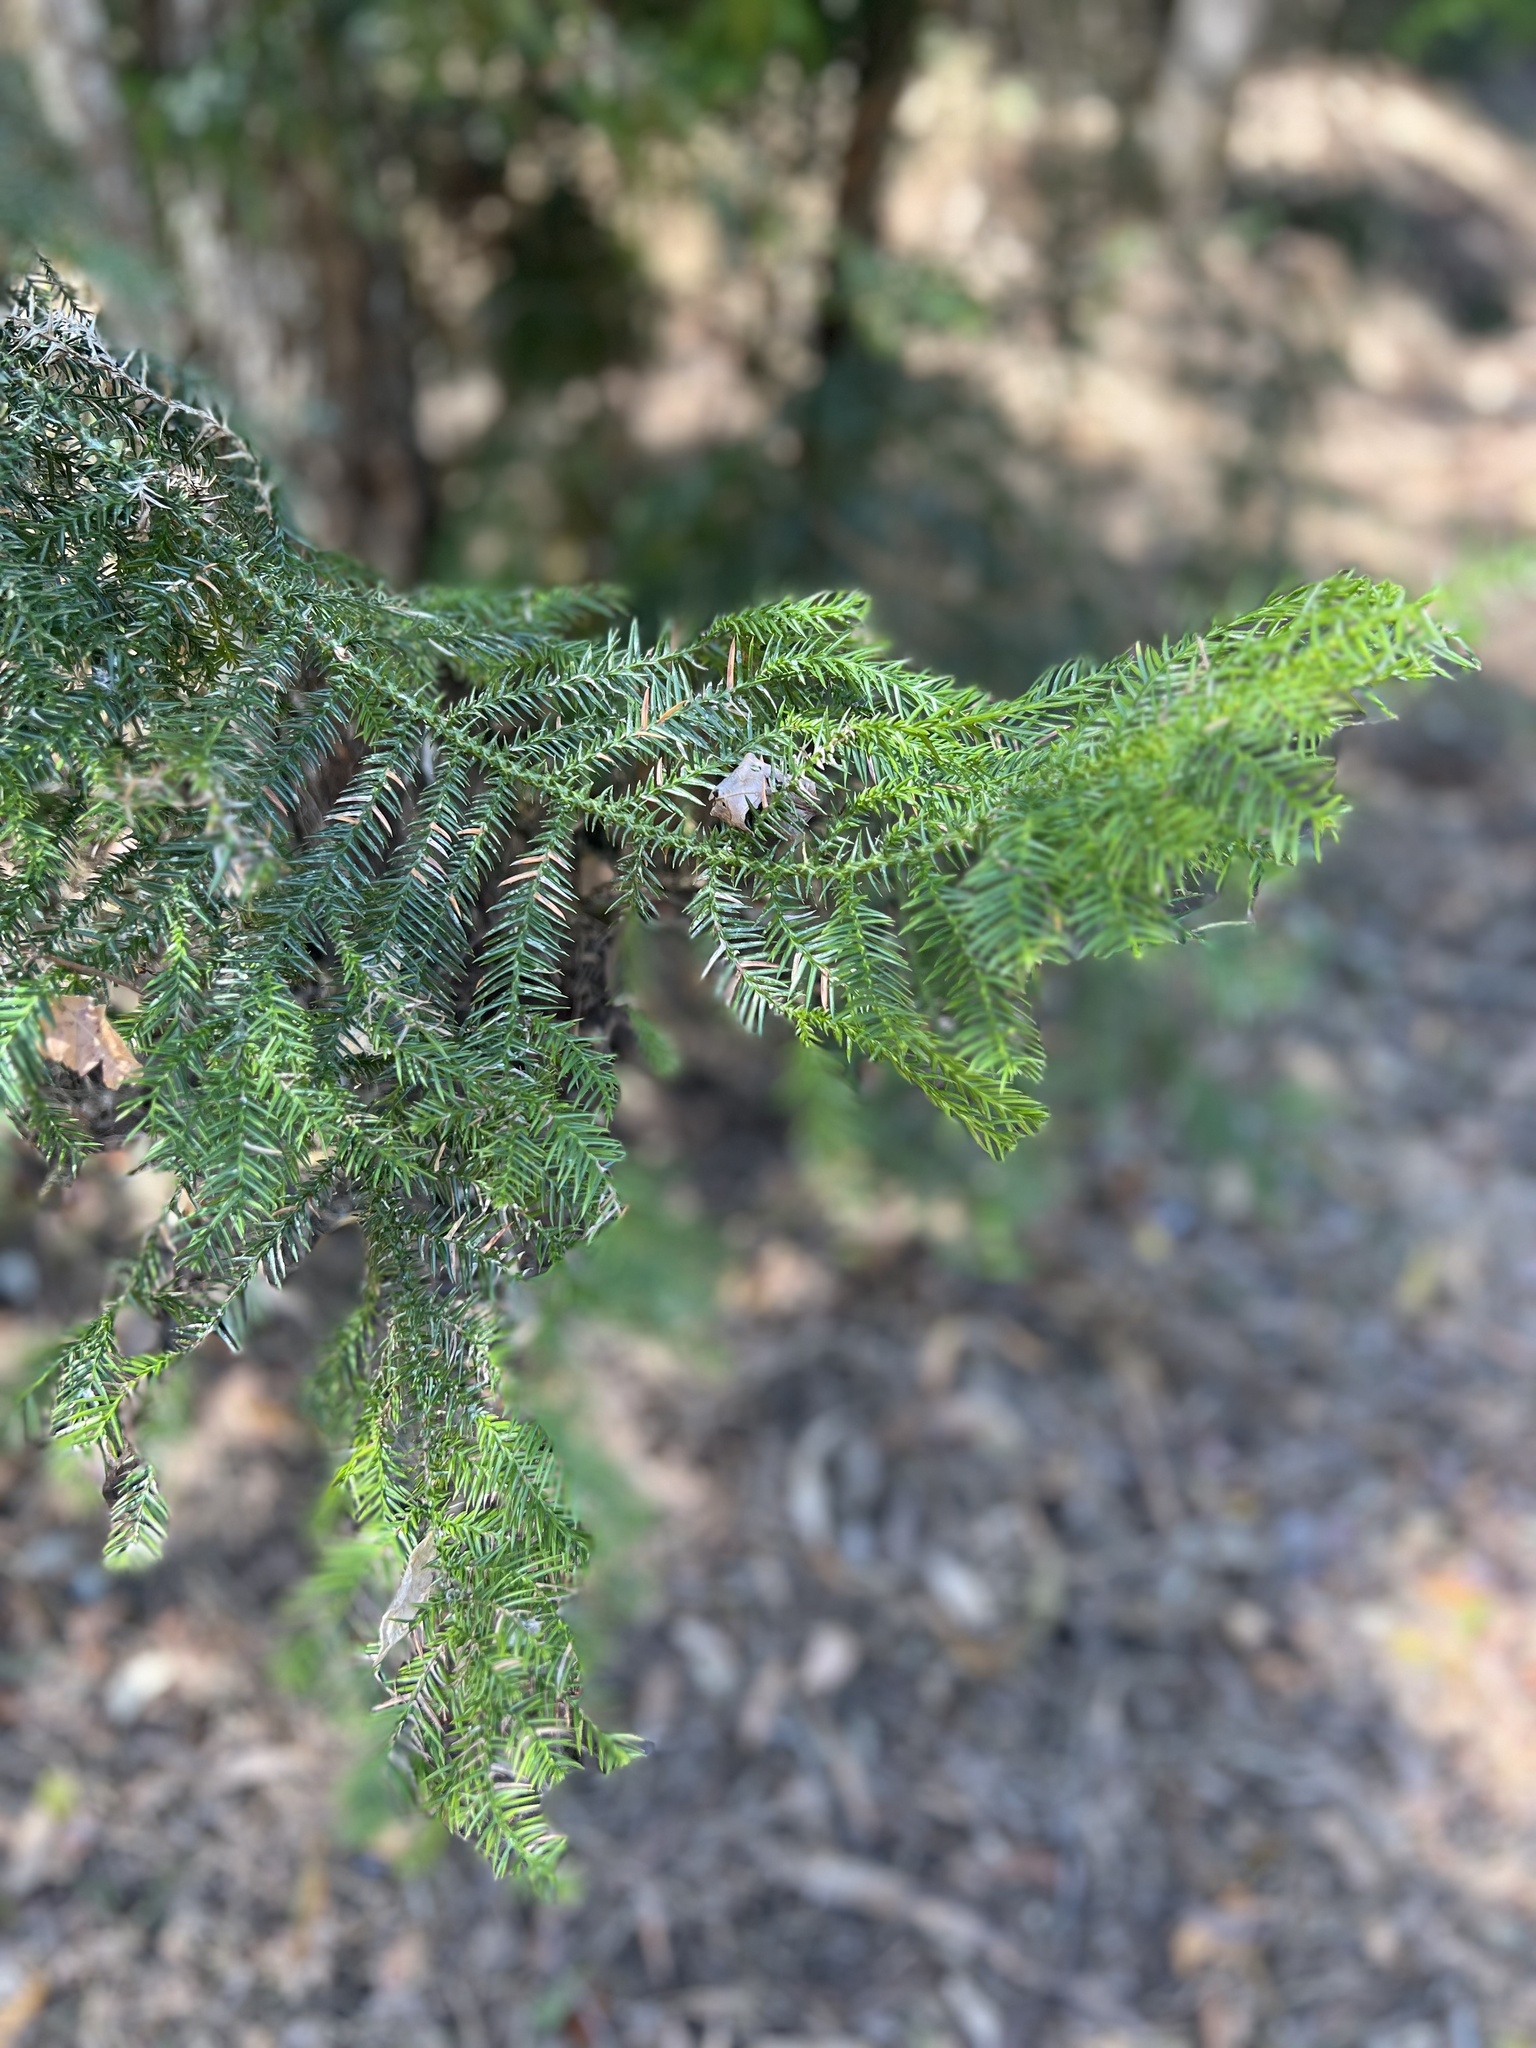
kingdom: Plantae
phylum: Tracheophyta
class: Pinopsida
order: Pinales
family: Araucariaceae
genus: Araucaria
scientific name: Araucaria cunninghamii
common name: Colonial pine
